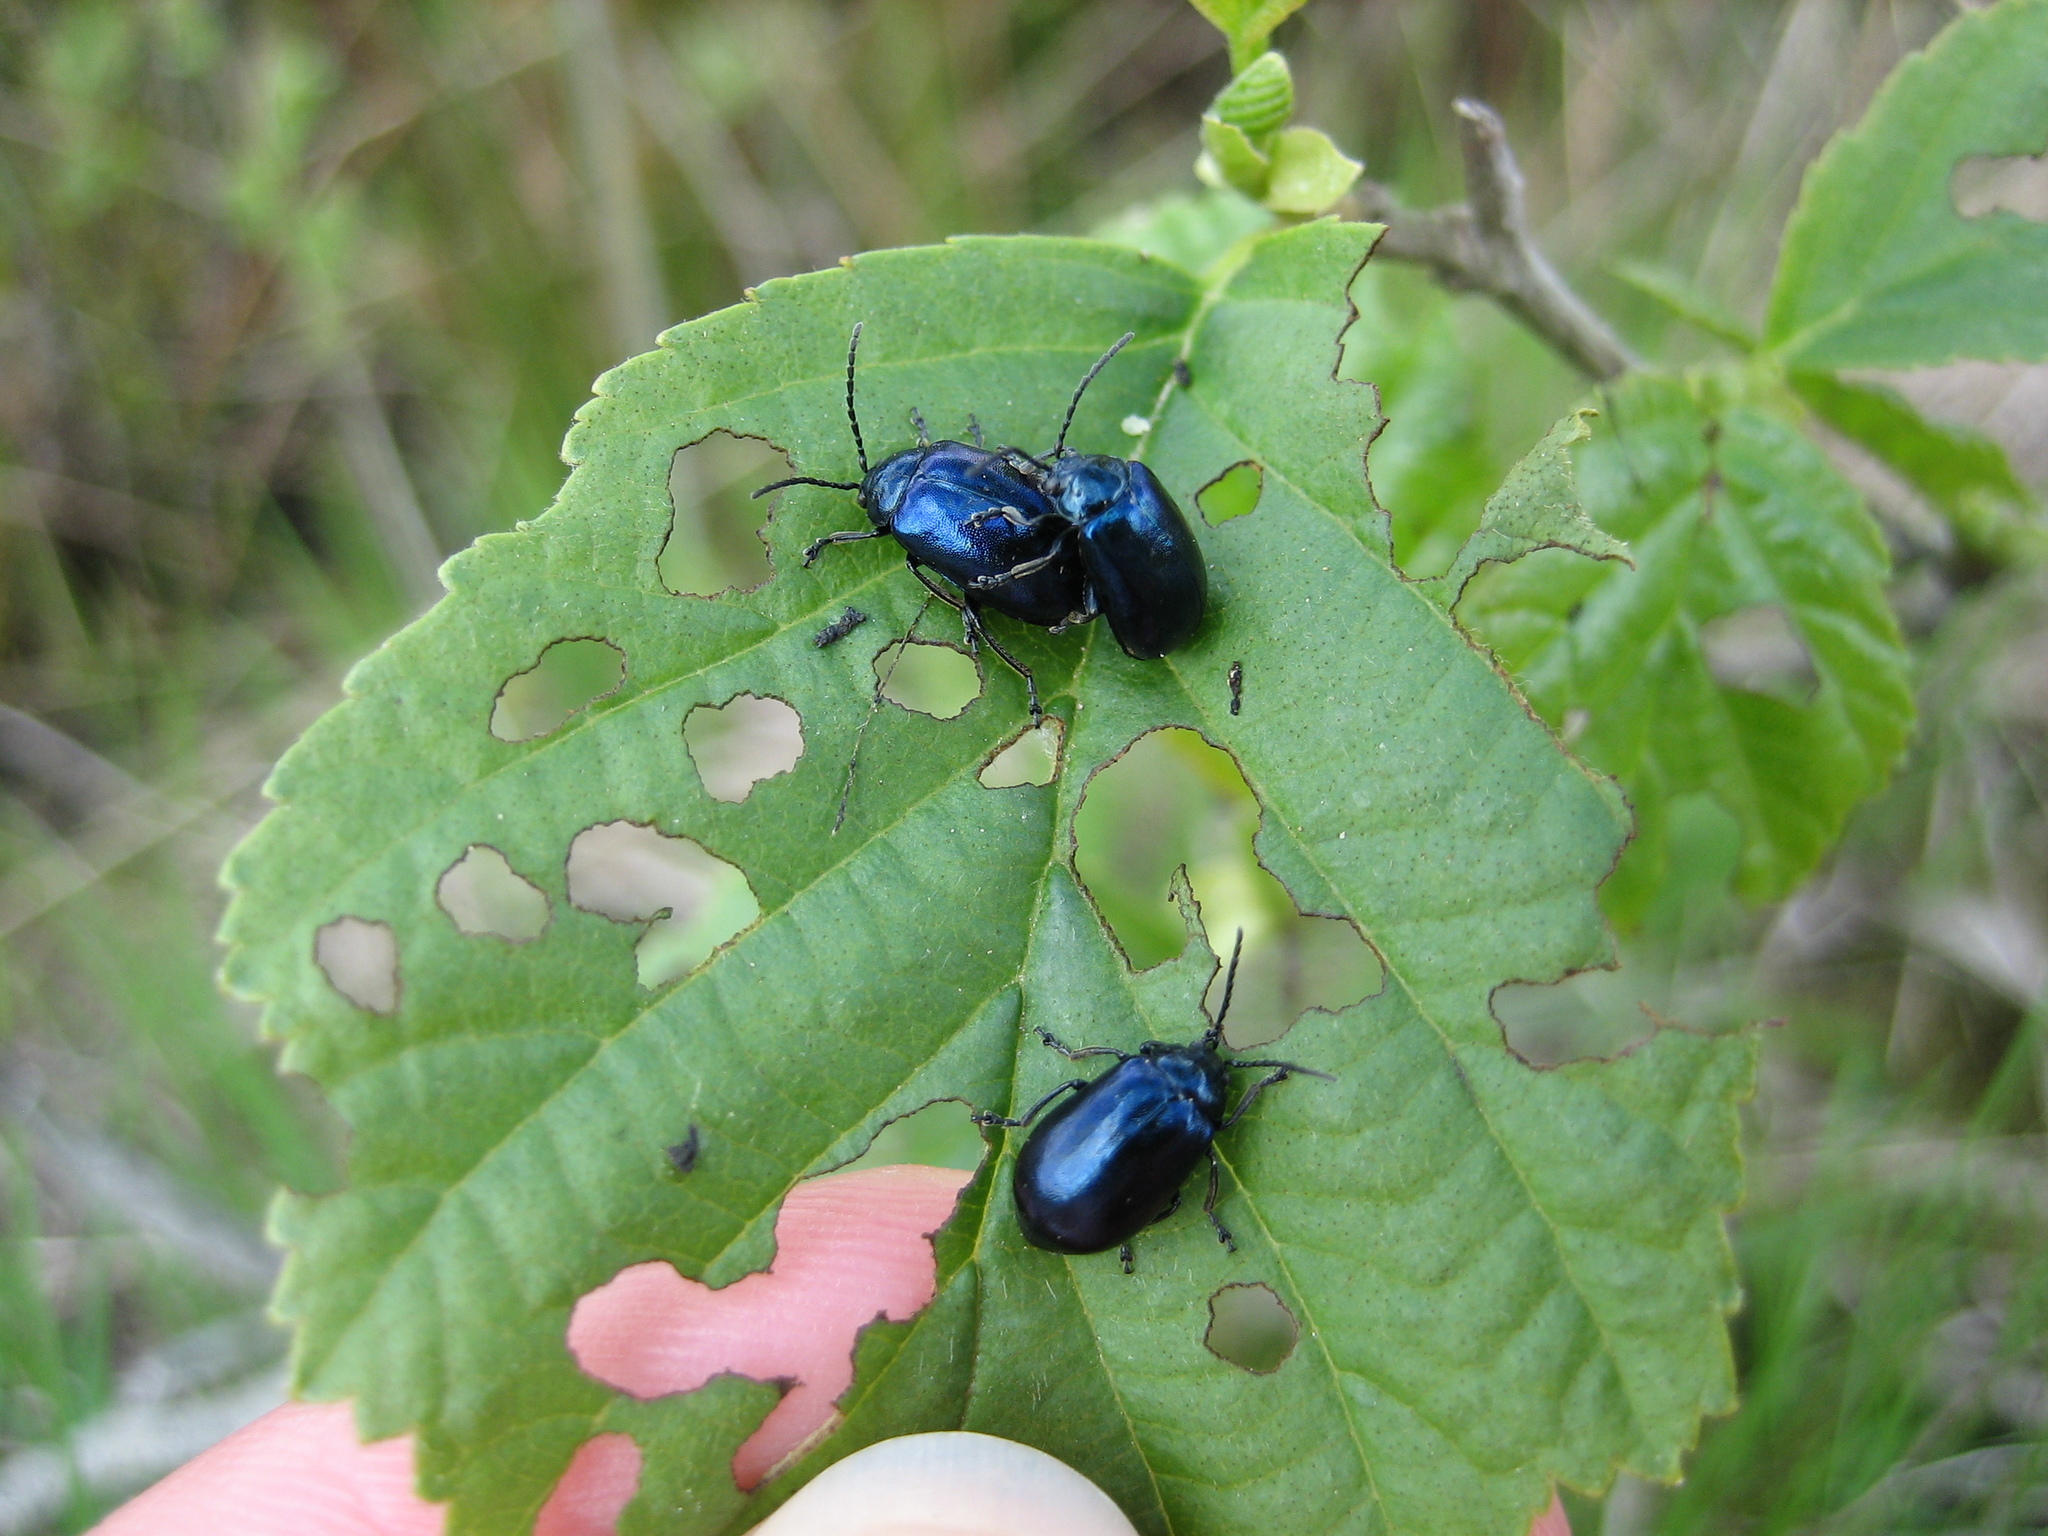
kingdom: Animalia
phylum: Arthropoda
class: Insecta
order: Coleoptera
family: Chrysomelidae
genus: Agelastica
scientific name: Agelastica alni
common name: Alder leaf beetle
